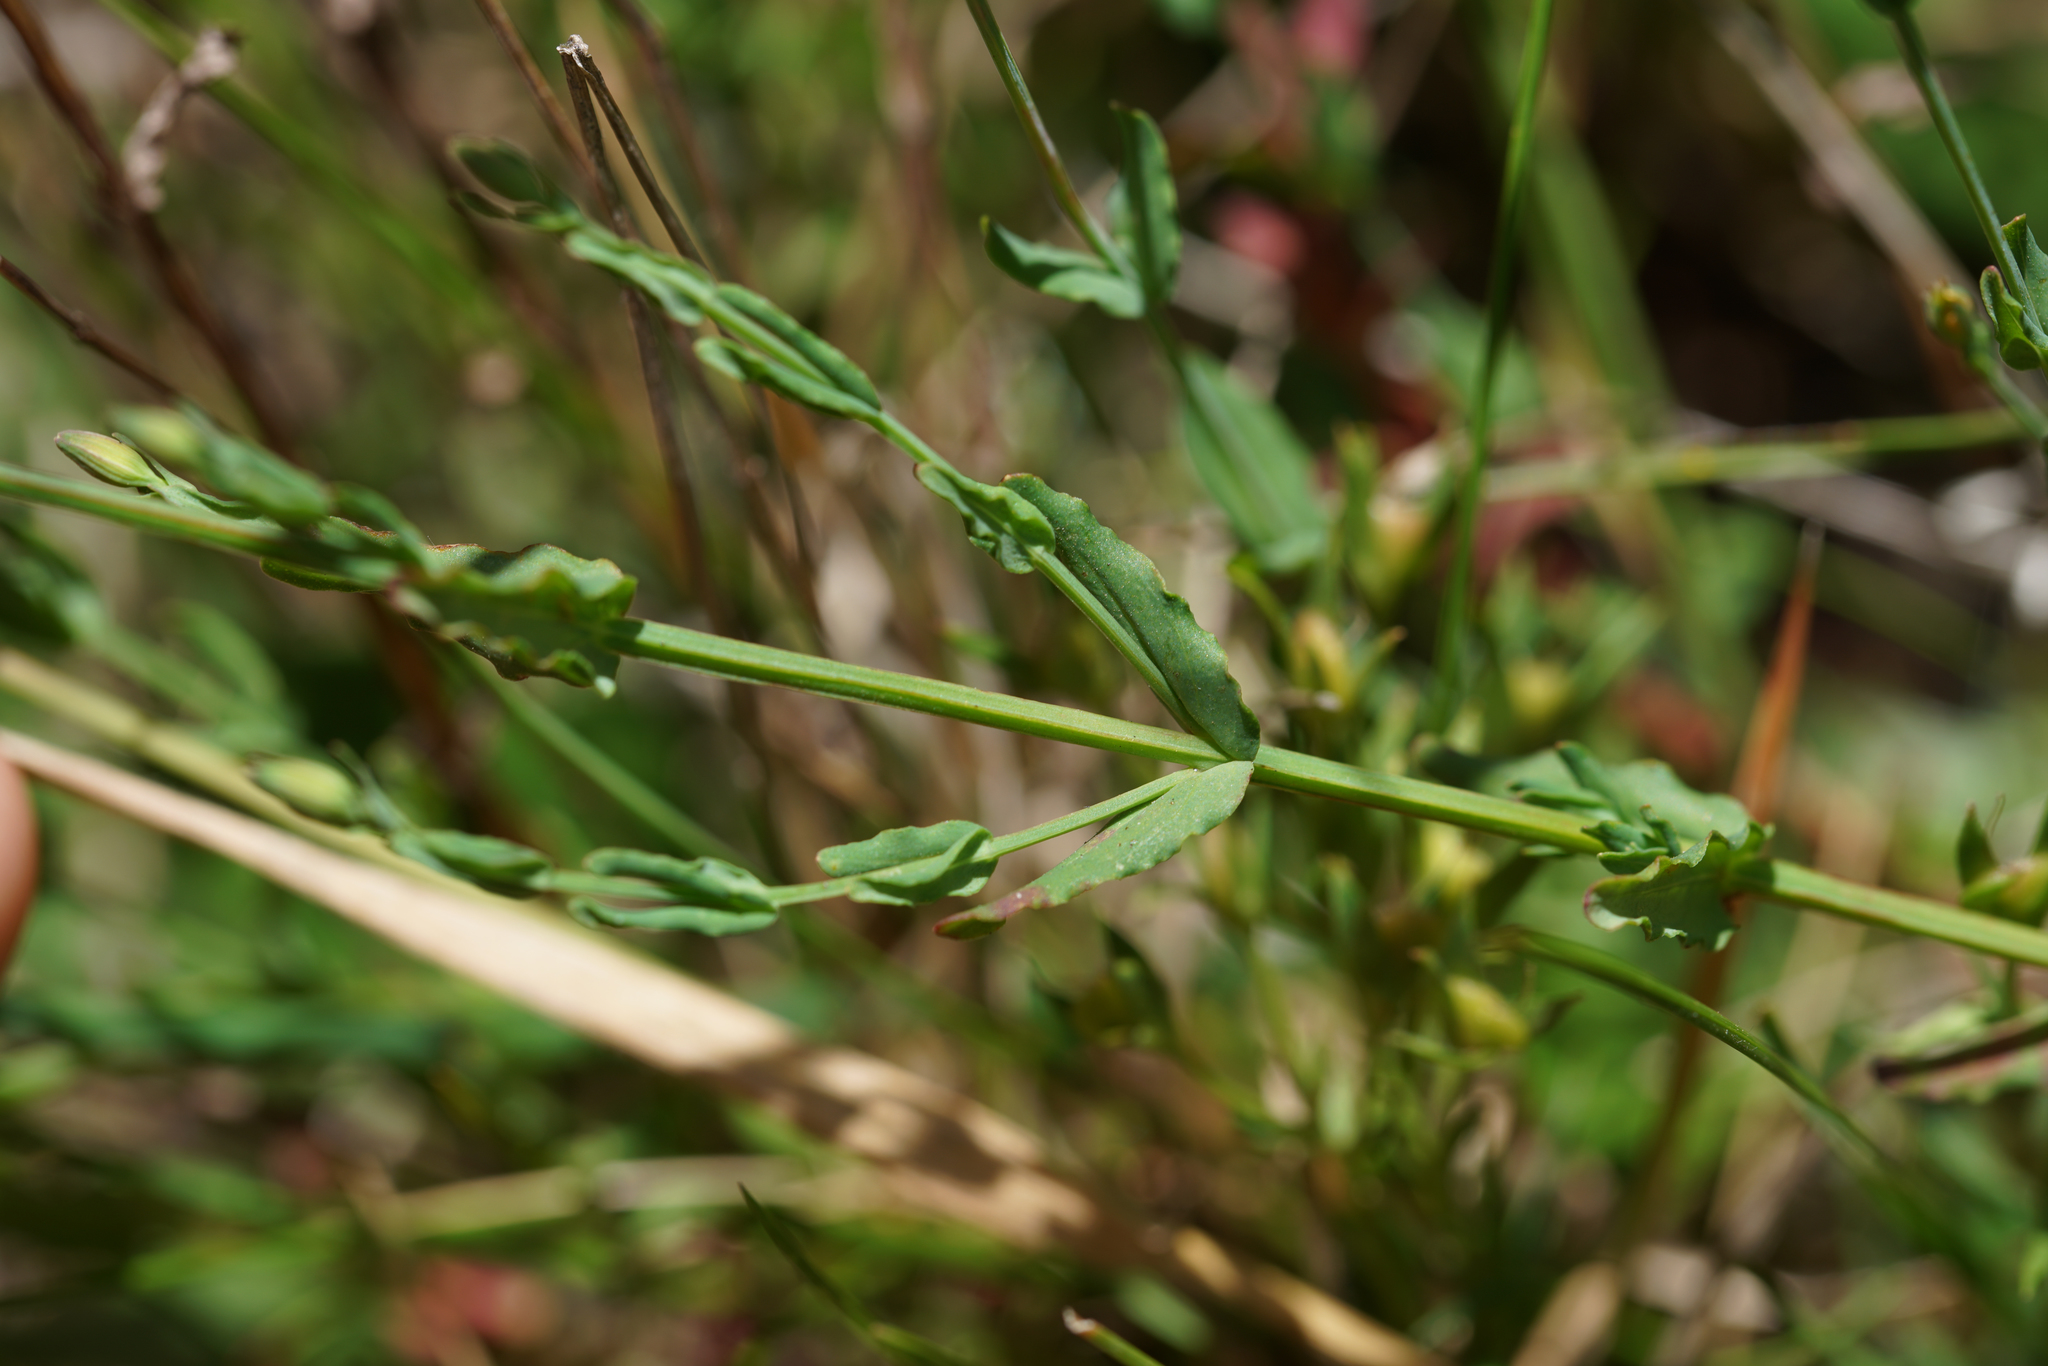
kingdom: Plantae
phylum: Tracheophyta
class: Magnoliopsida
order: Malpighiales
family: Hypericaceae
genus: Hypericum
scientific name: Hypericum gramineum
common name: Grassy st. johnswort
